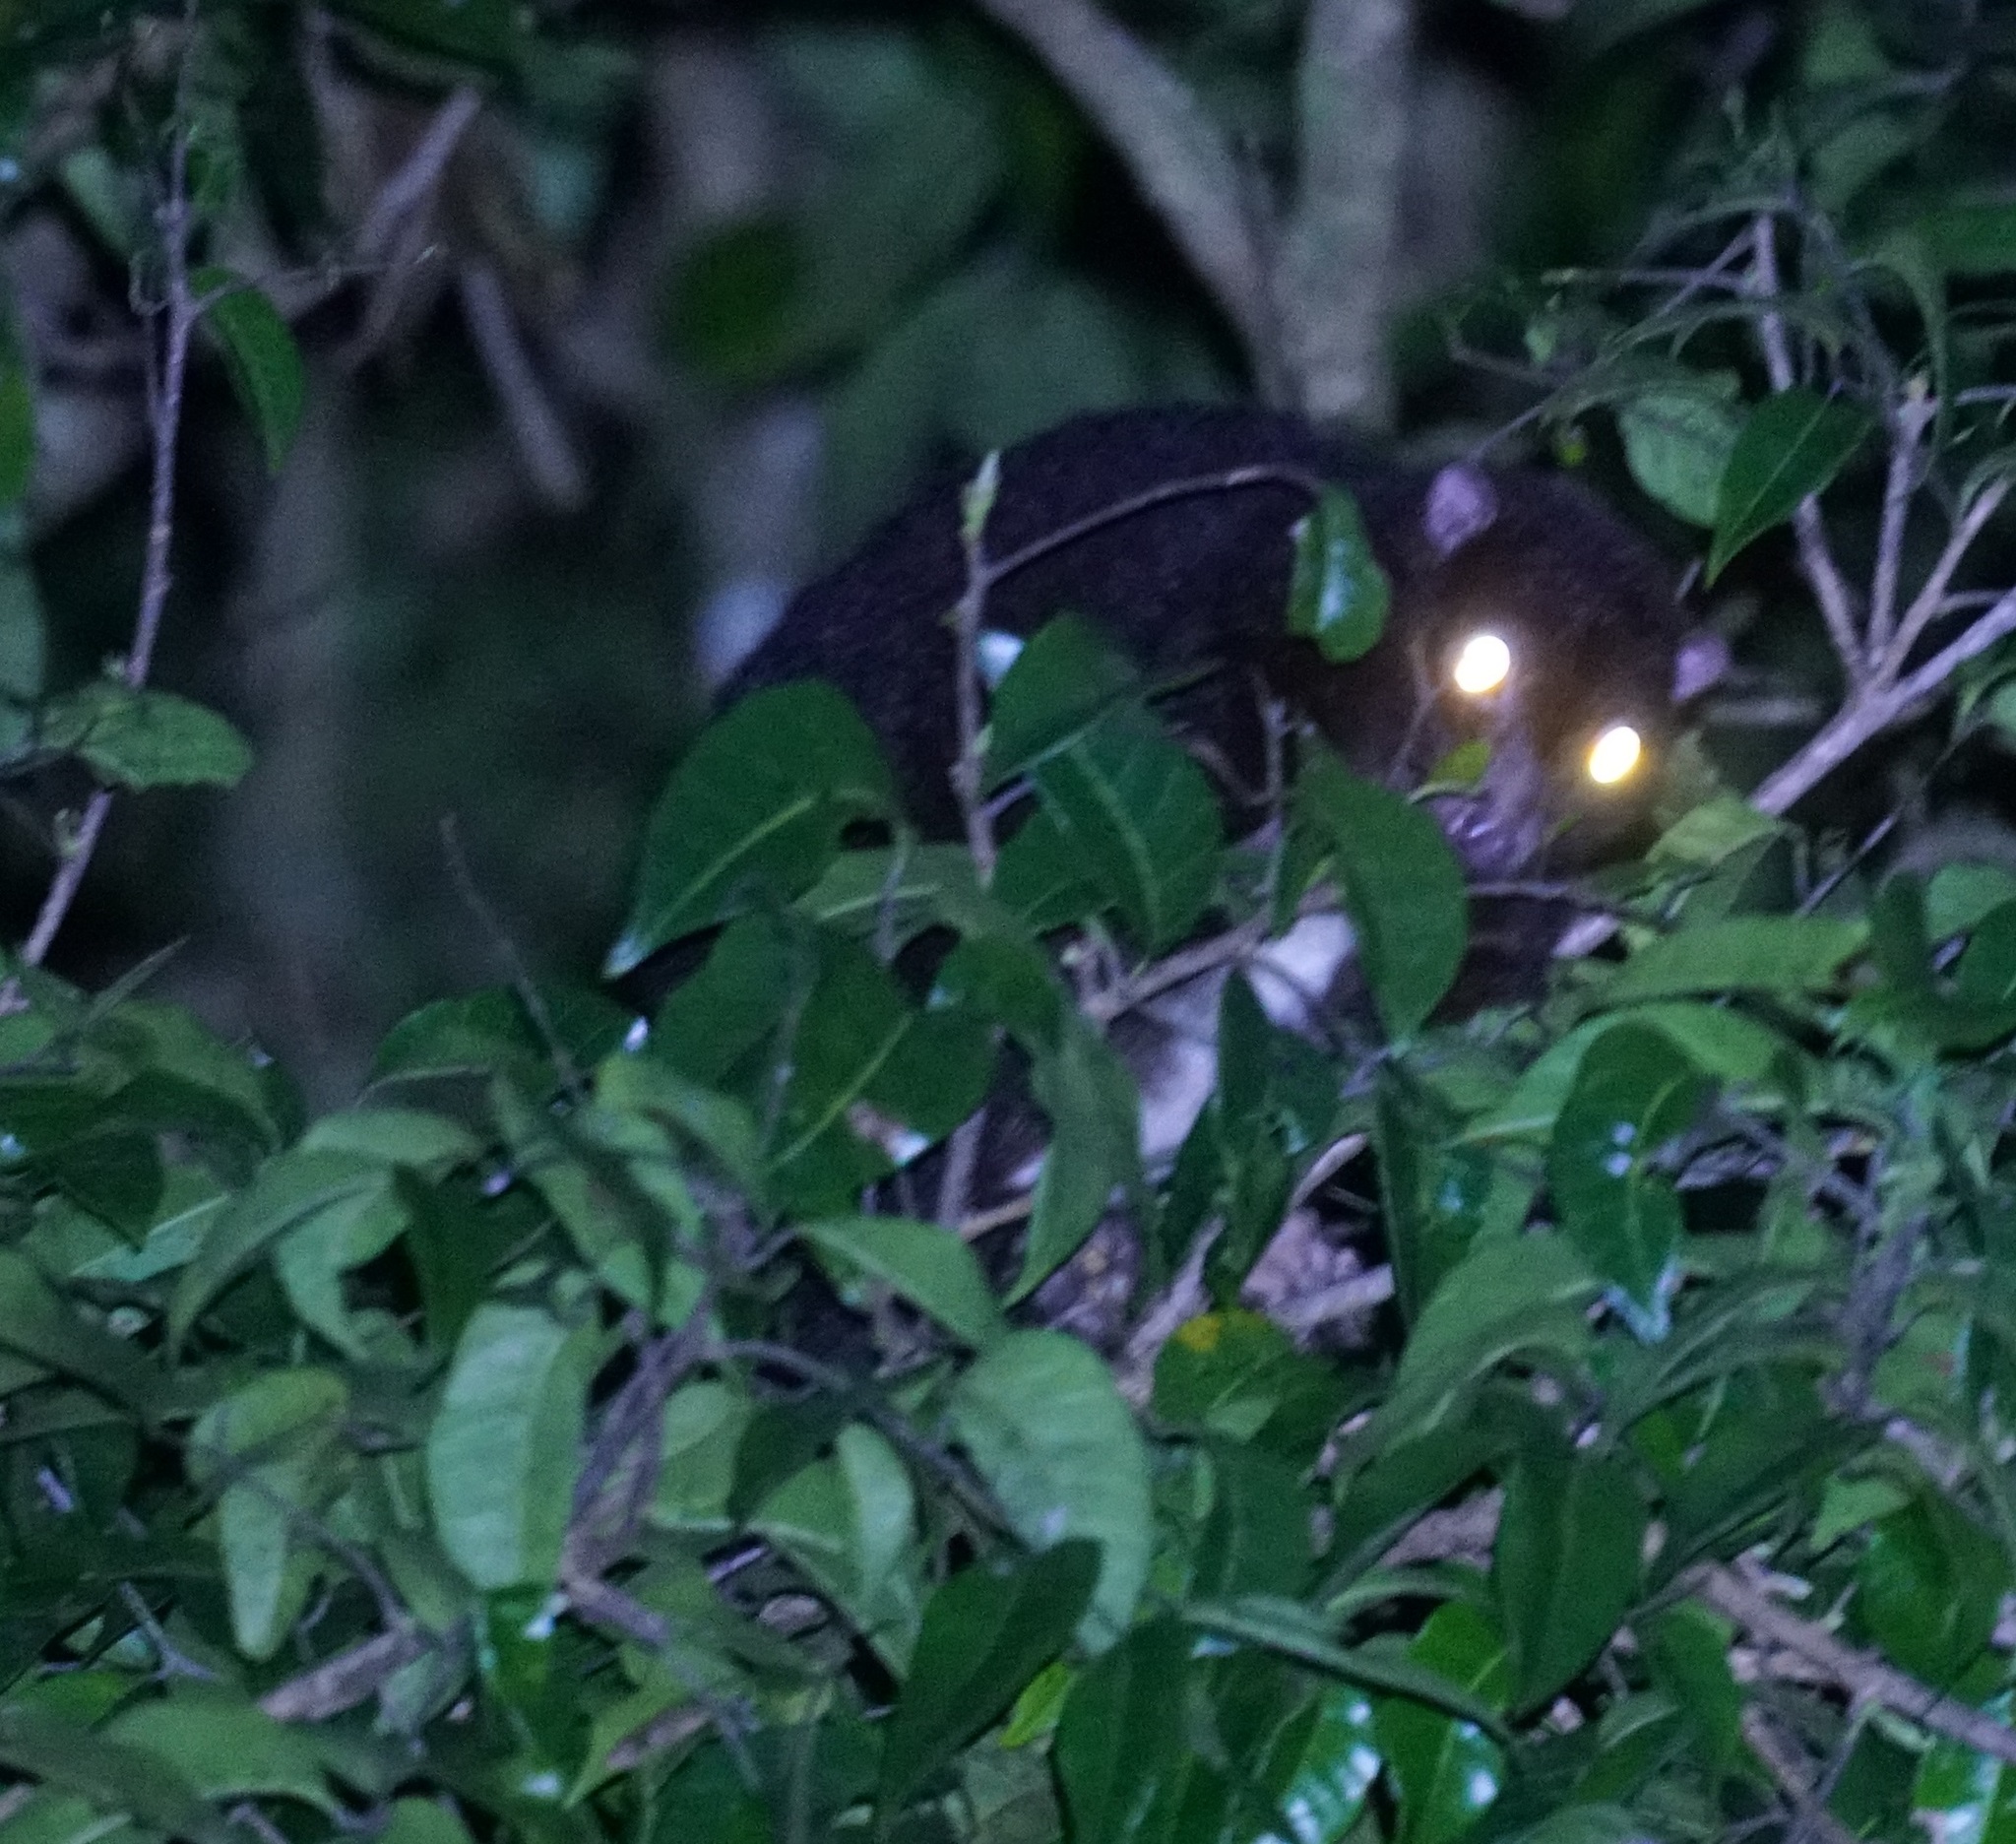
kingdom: Animalia
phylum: Chordata
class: Mammalia
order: Diprotodontia
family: Pseudocheiridae
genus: Pseudochirulus
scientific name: Pseudochirulus herbertensis
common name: Herbert river ringtail
